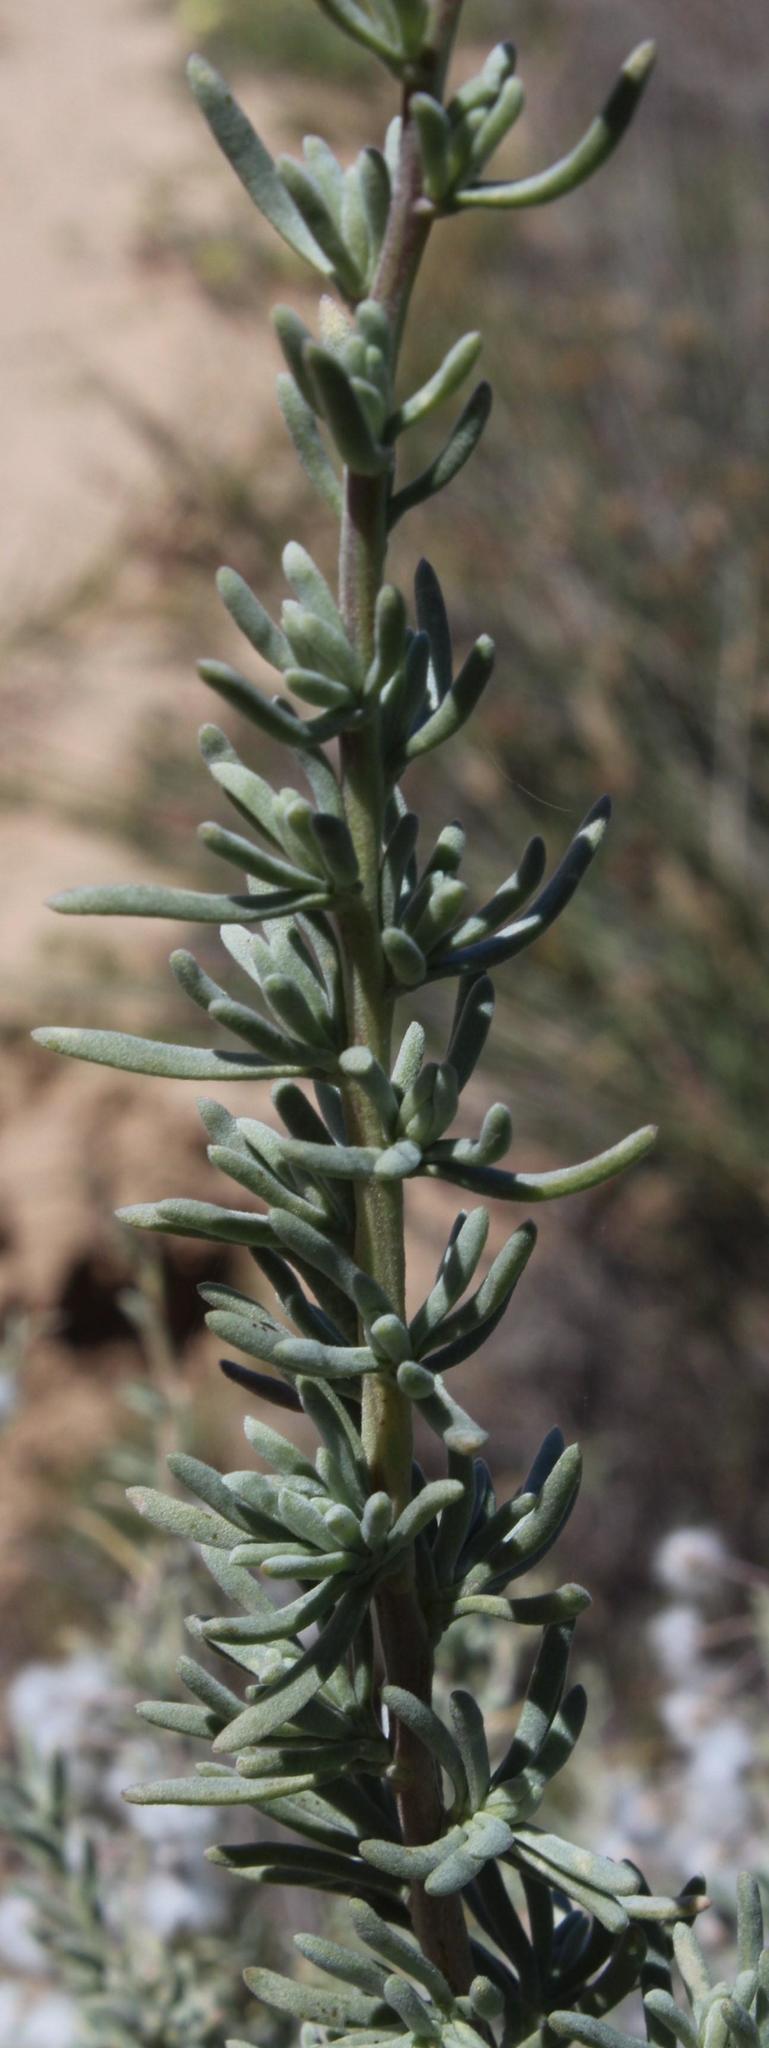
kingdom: Plantae
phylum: Tracheophyta
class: Magnoliopsida
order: Asterales
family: Asteraceae
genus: Eriocephalus
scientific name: Eriocephalus racemosus
